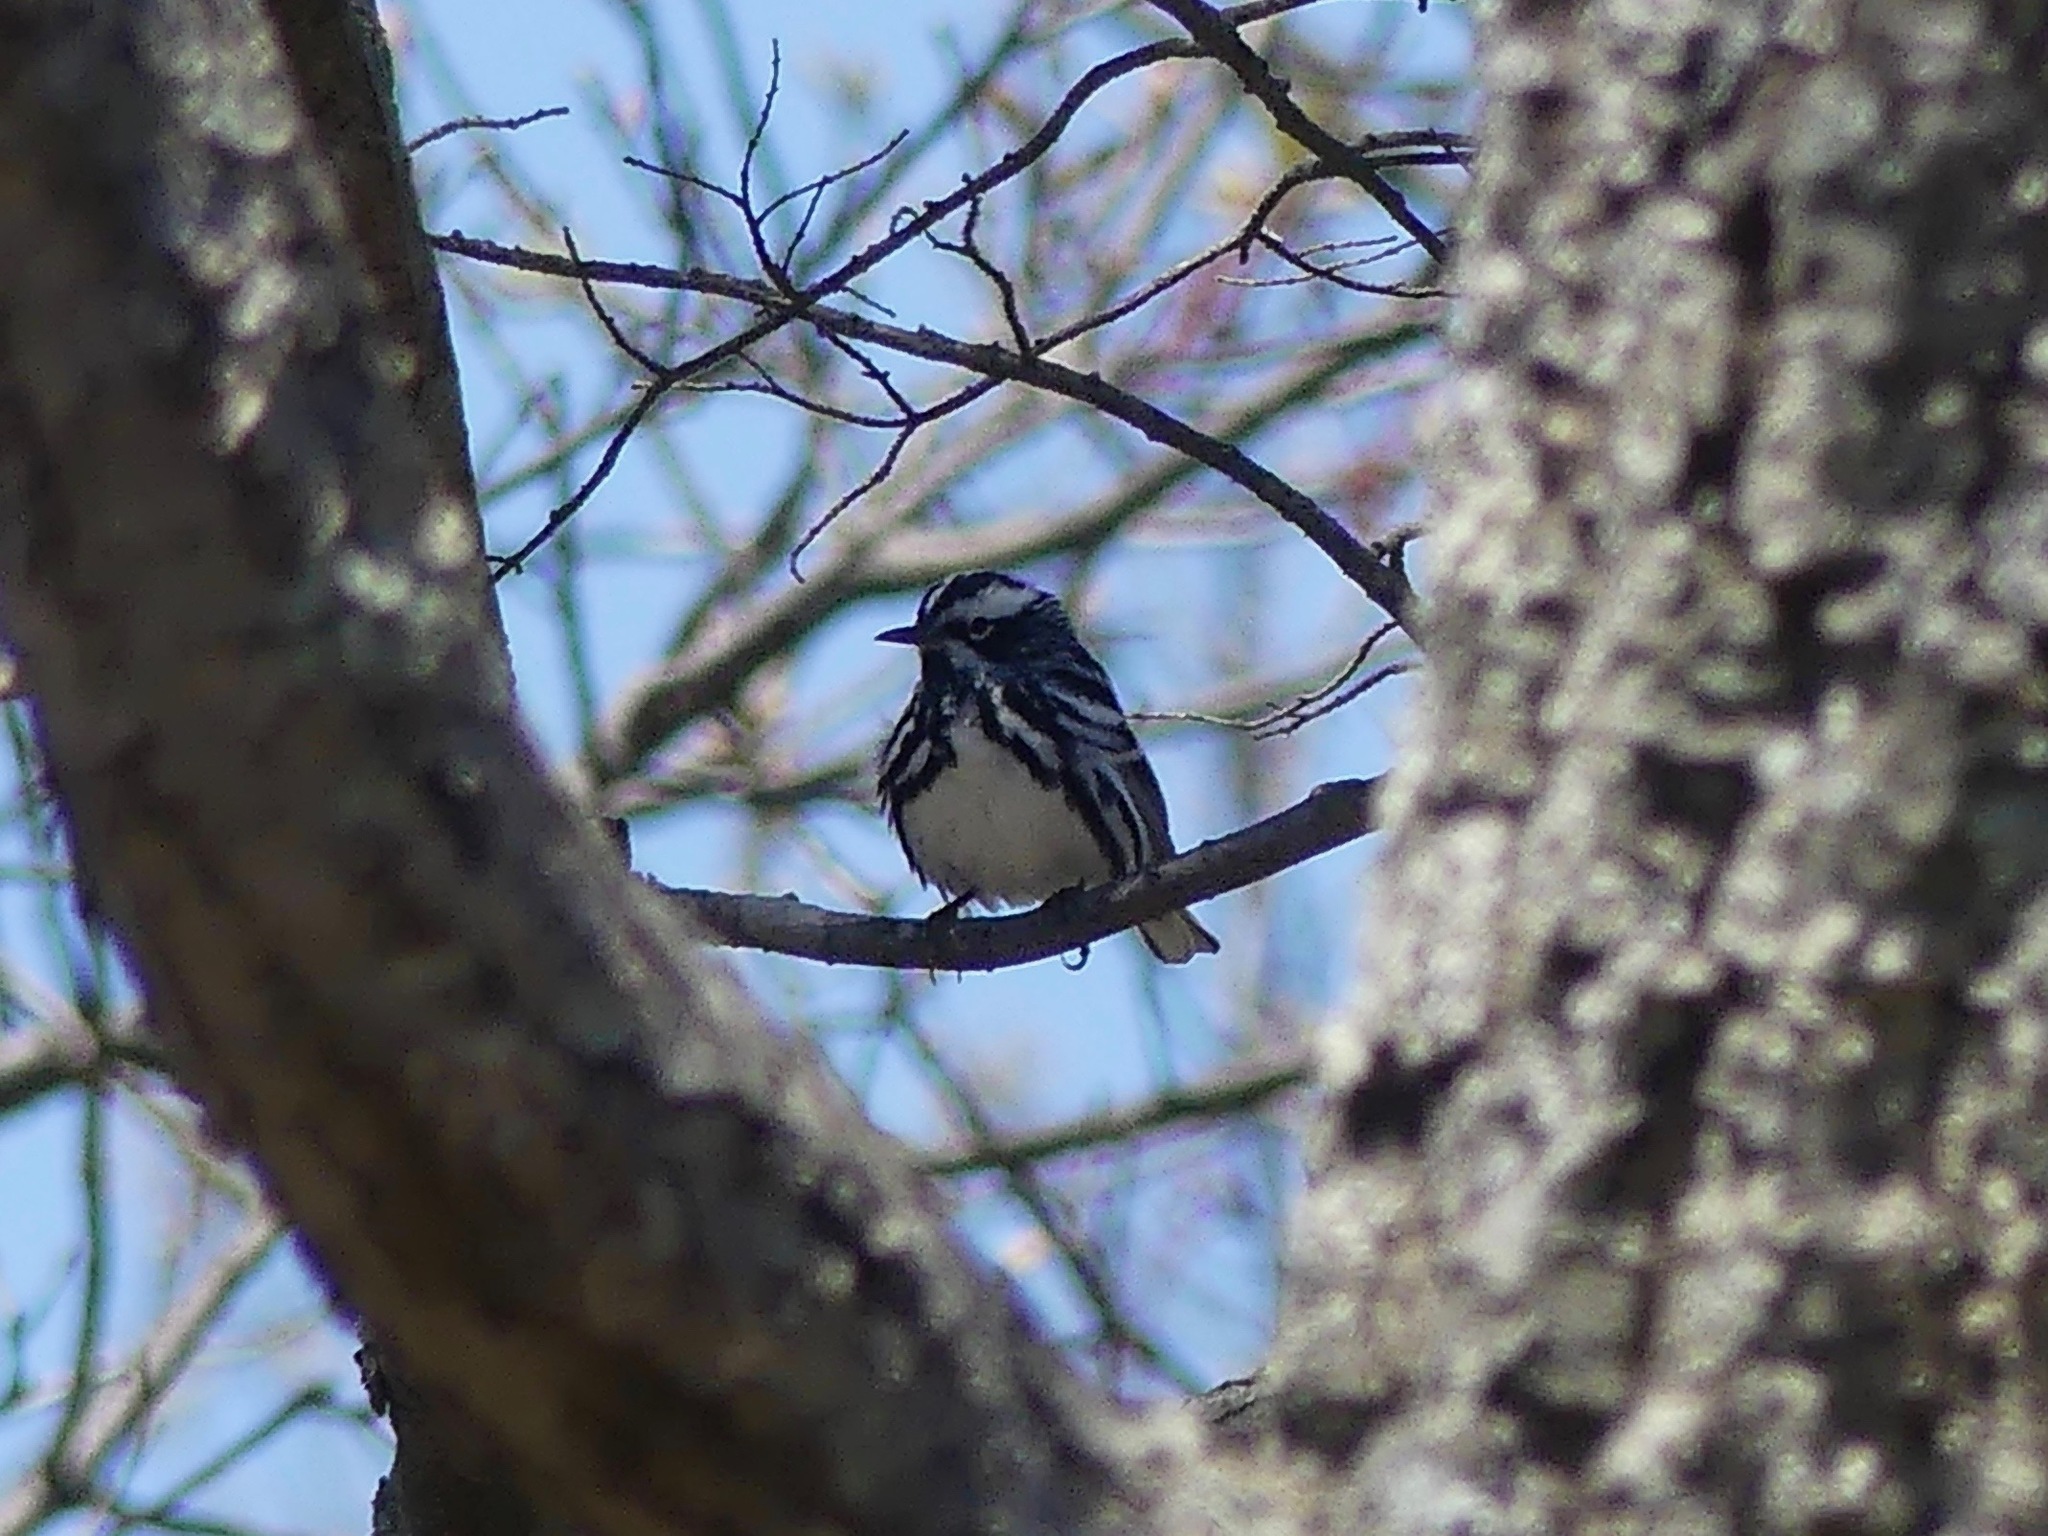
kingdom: Animalia
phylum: Chordata
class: Aves
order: Passeriformes
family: Parulidae
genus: Mniotilta
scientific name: Mniotilta varia
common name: Black-and-white warbler
